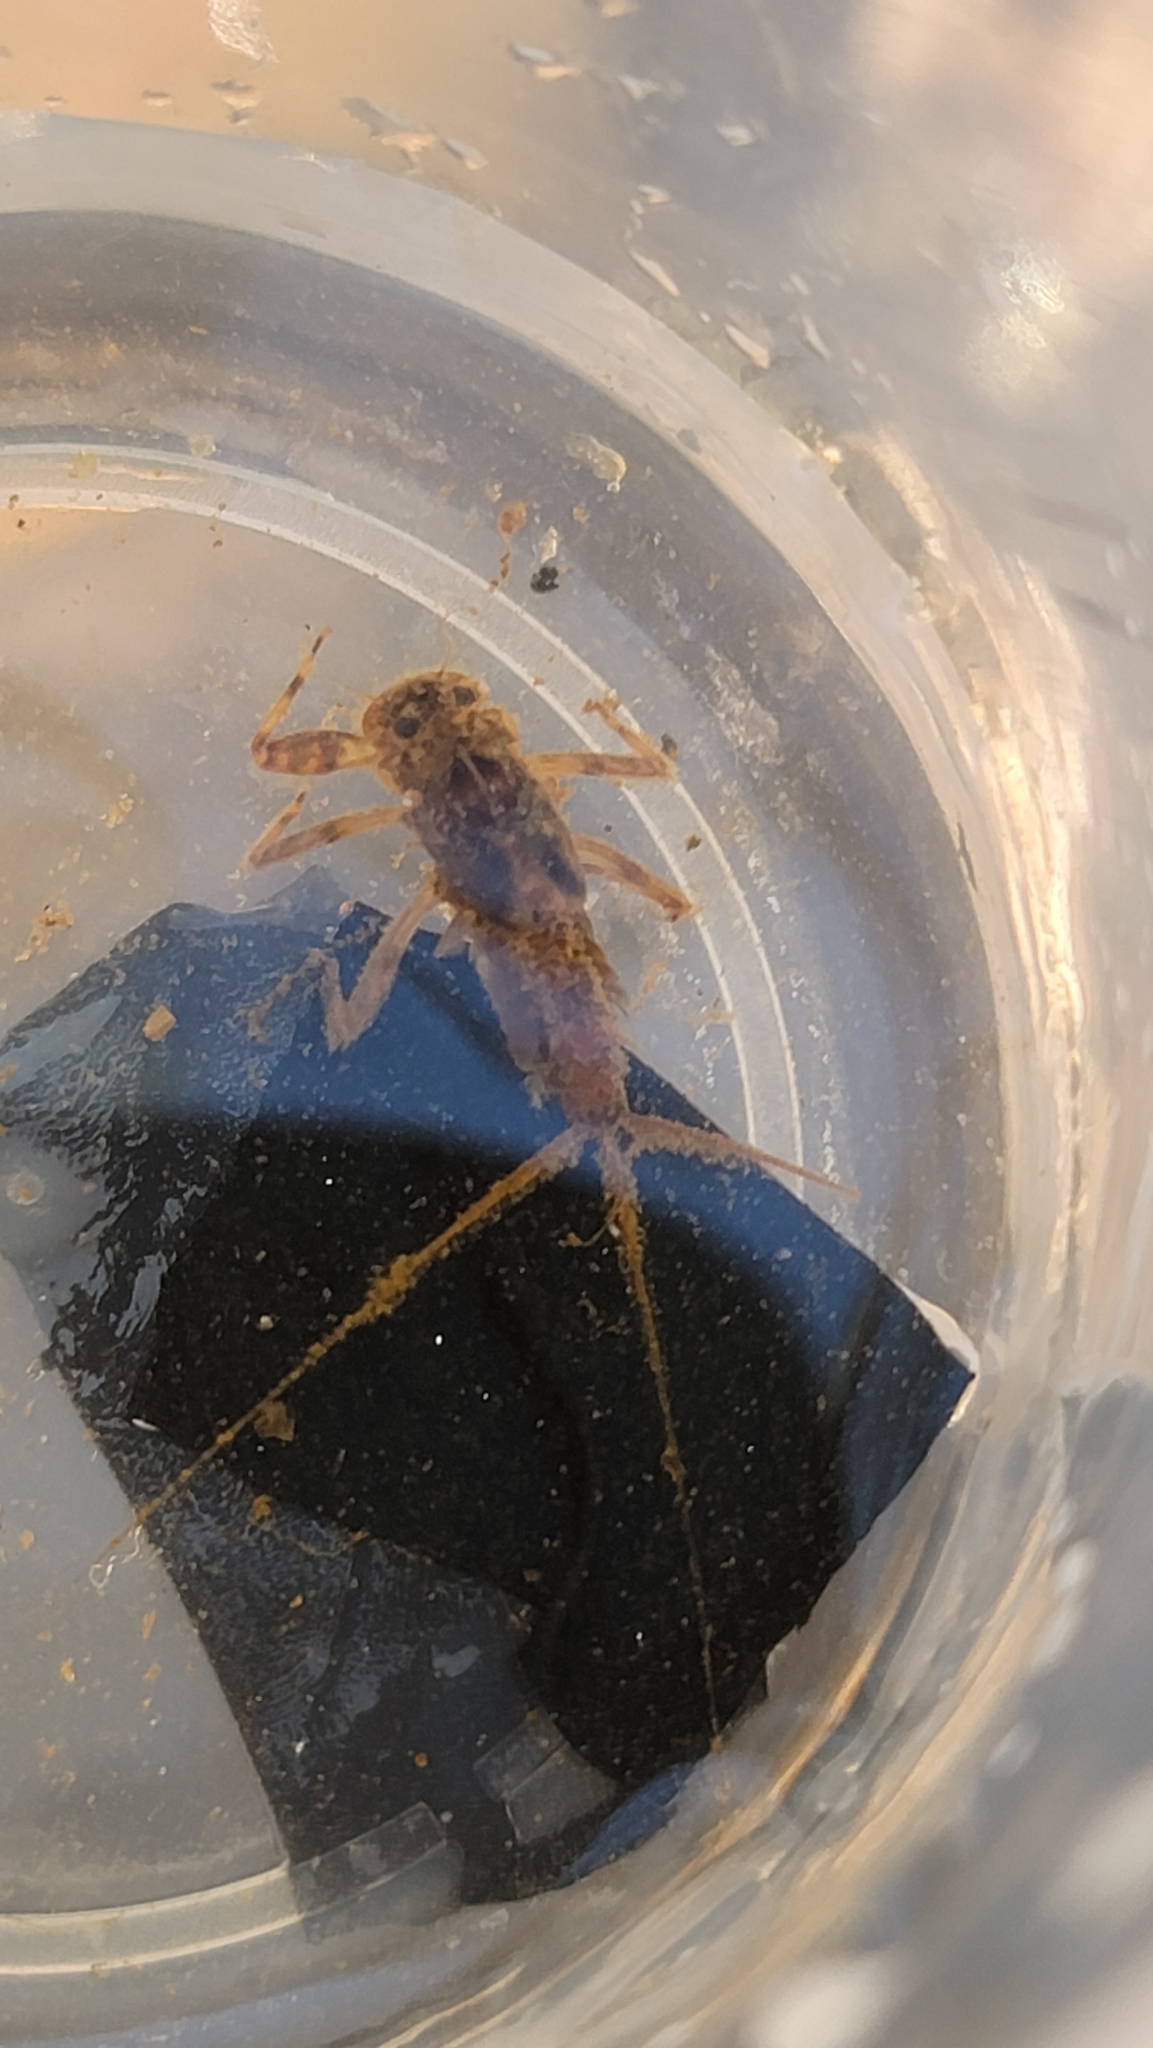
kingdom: Animalia
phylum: Arthropoda
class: Insecta
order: Ephemeroptera
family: Heptageniidae
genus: Stenonema
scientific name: Stenonema femoratum
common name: Dark cahill
